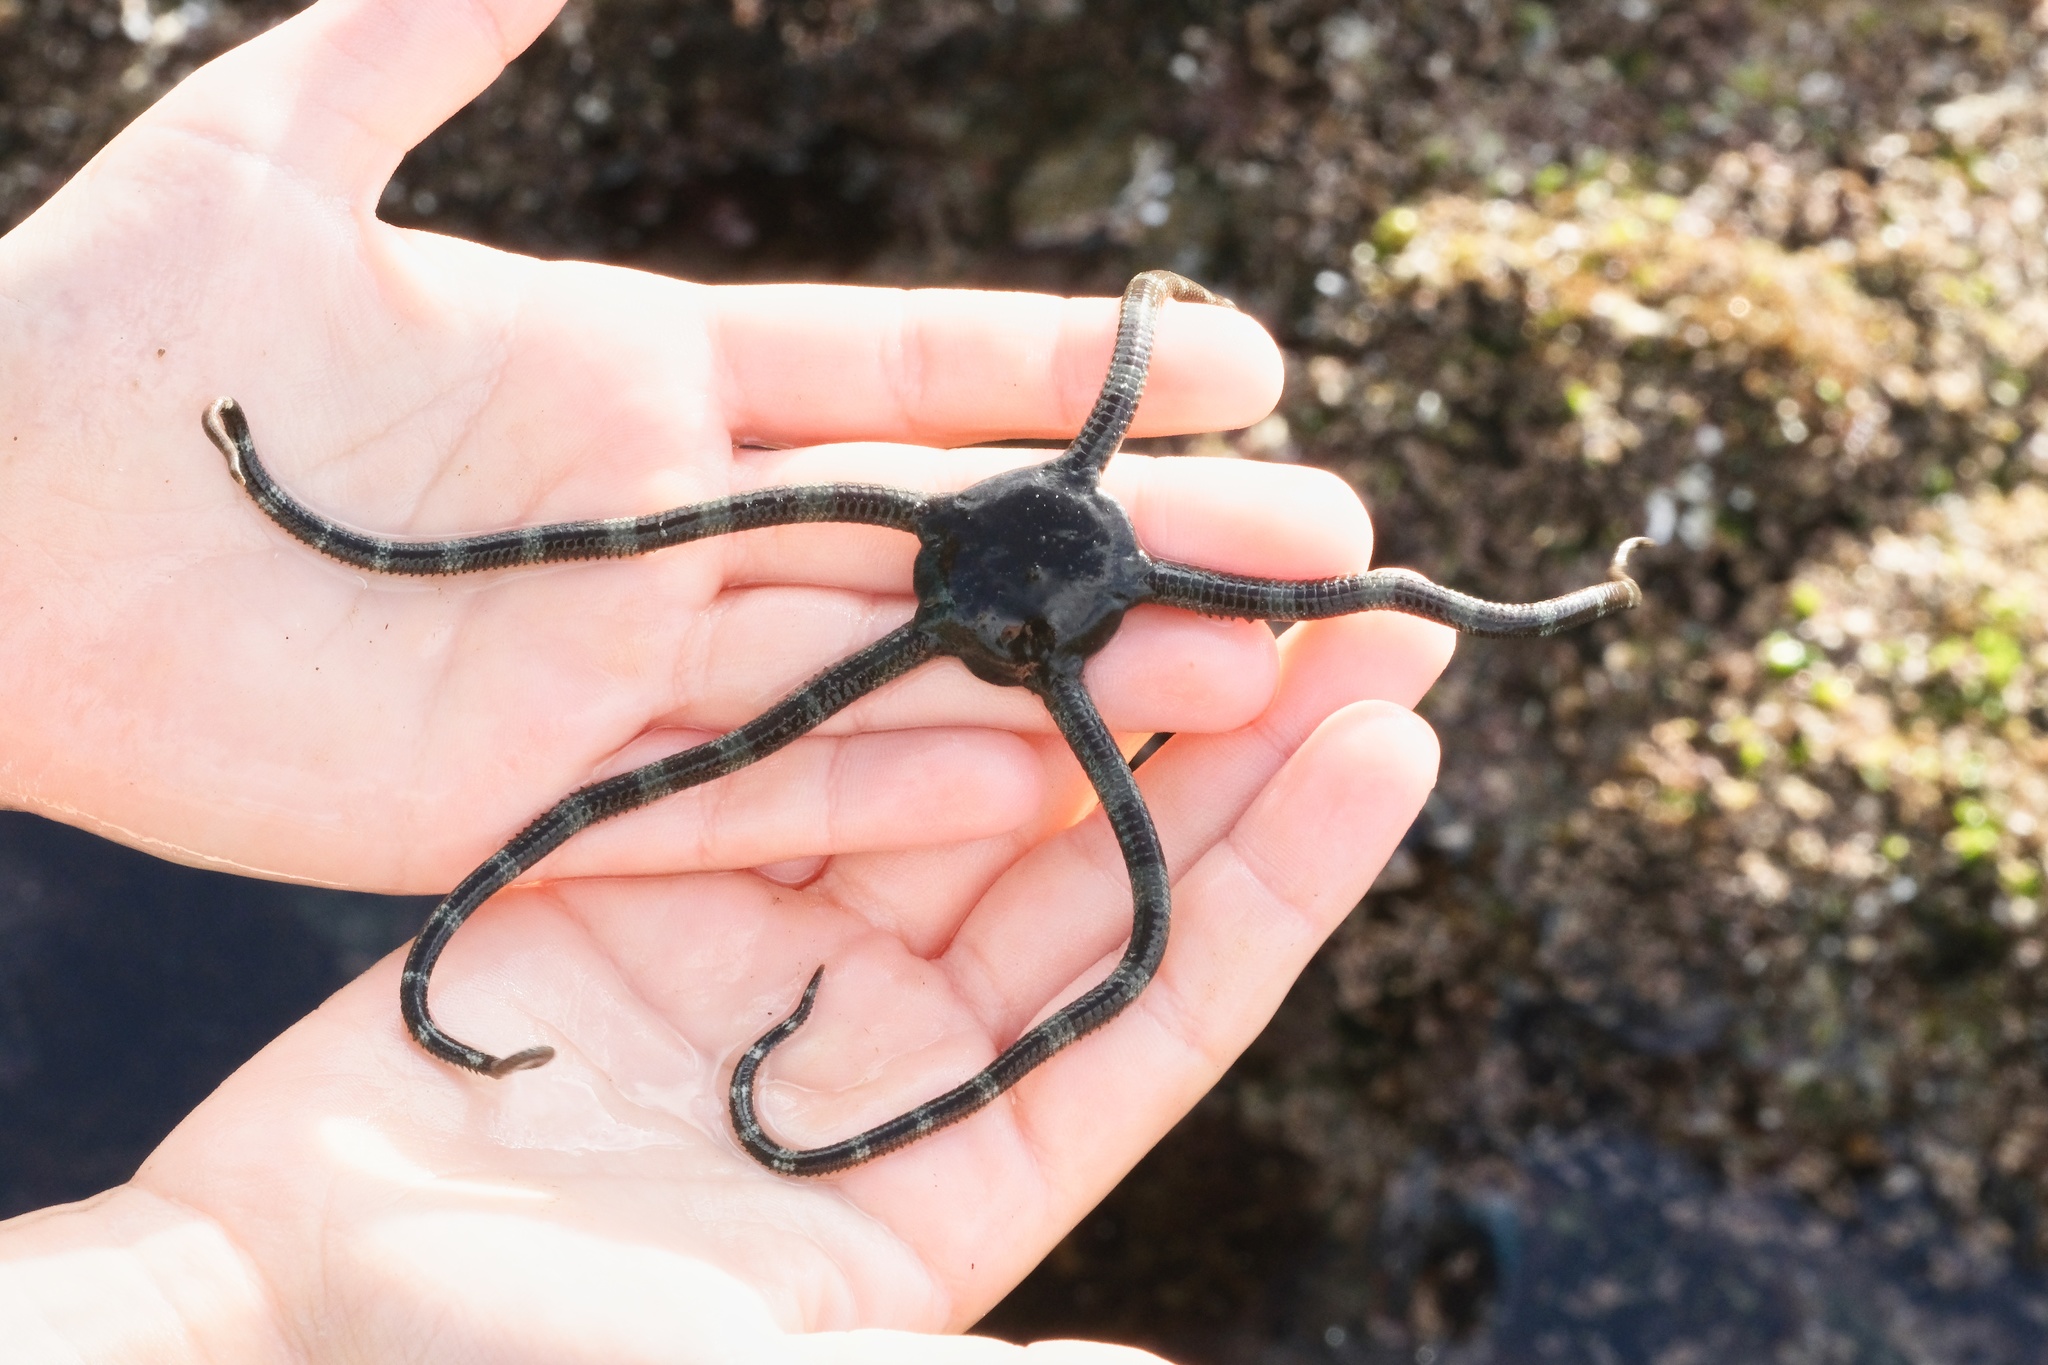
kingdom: Animalia
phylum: Echinodermata
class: Ophiuroidea
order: Ophiacanthida
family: Ophiodermatidae
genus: Ophioderma
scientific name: Ophioderma panamense
